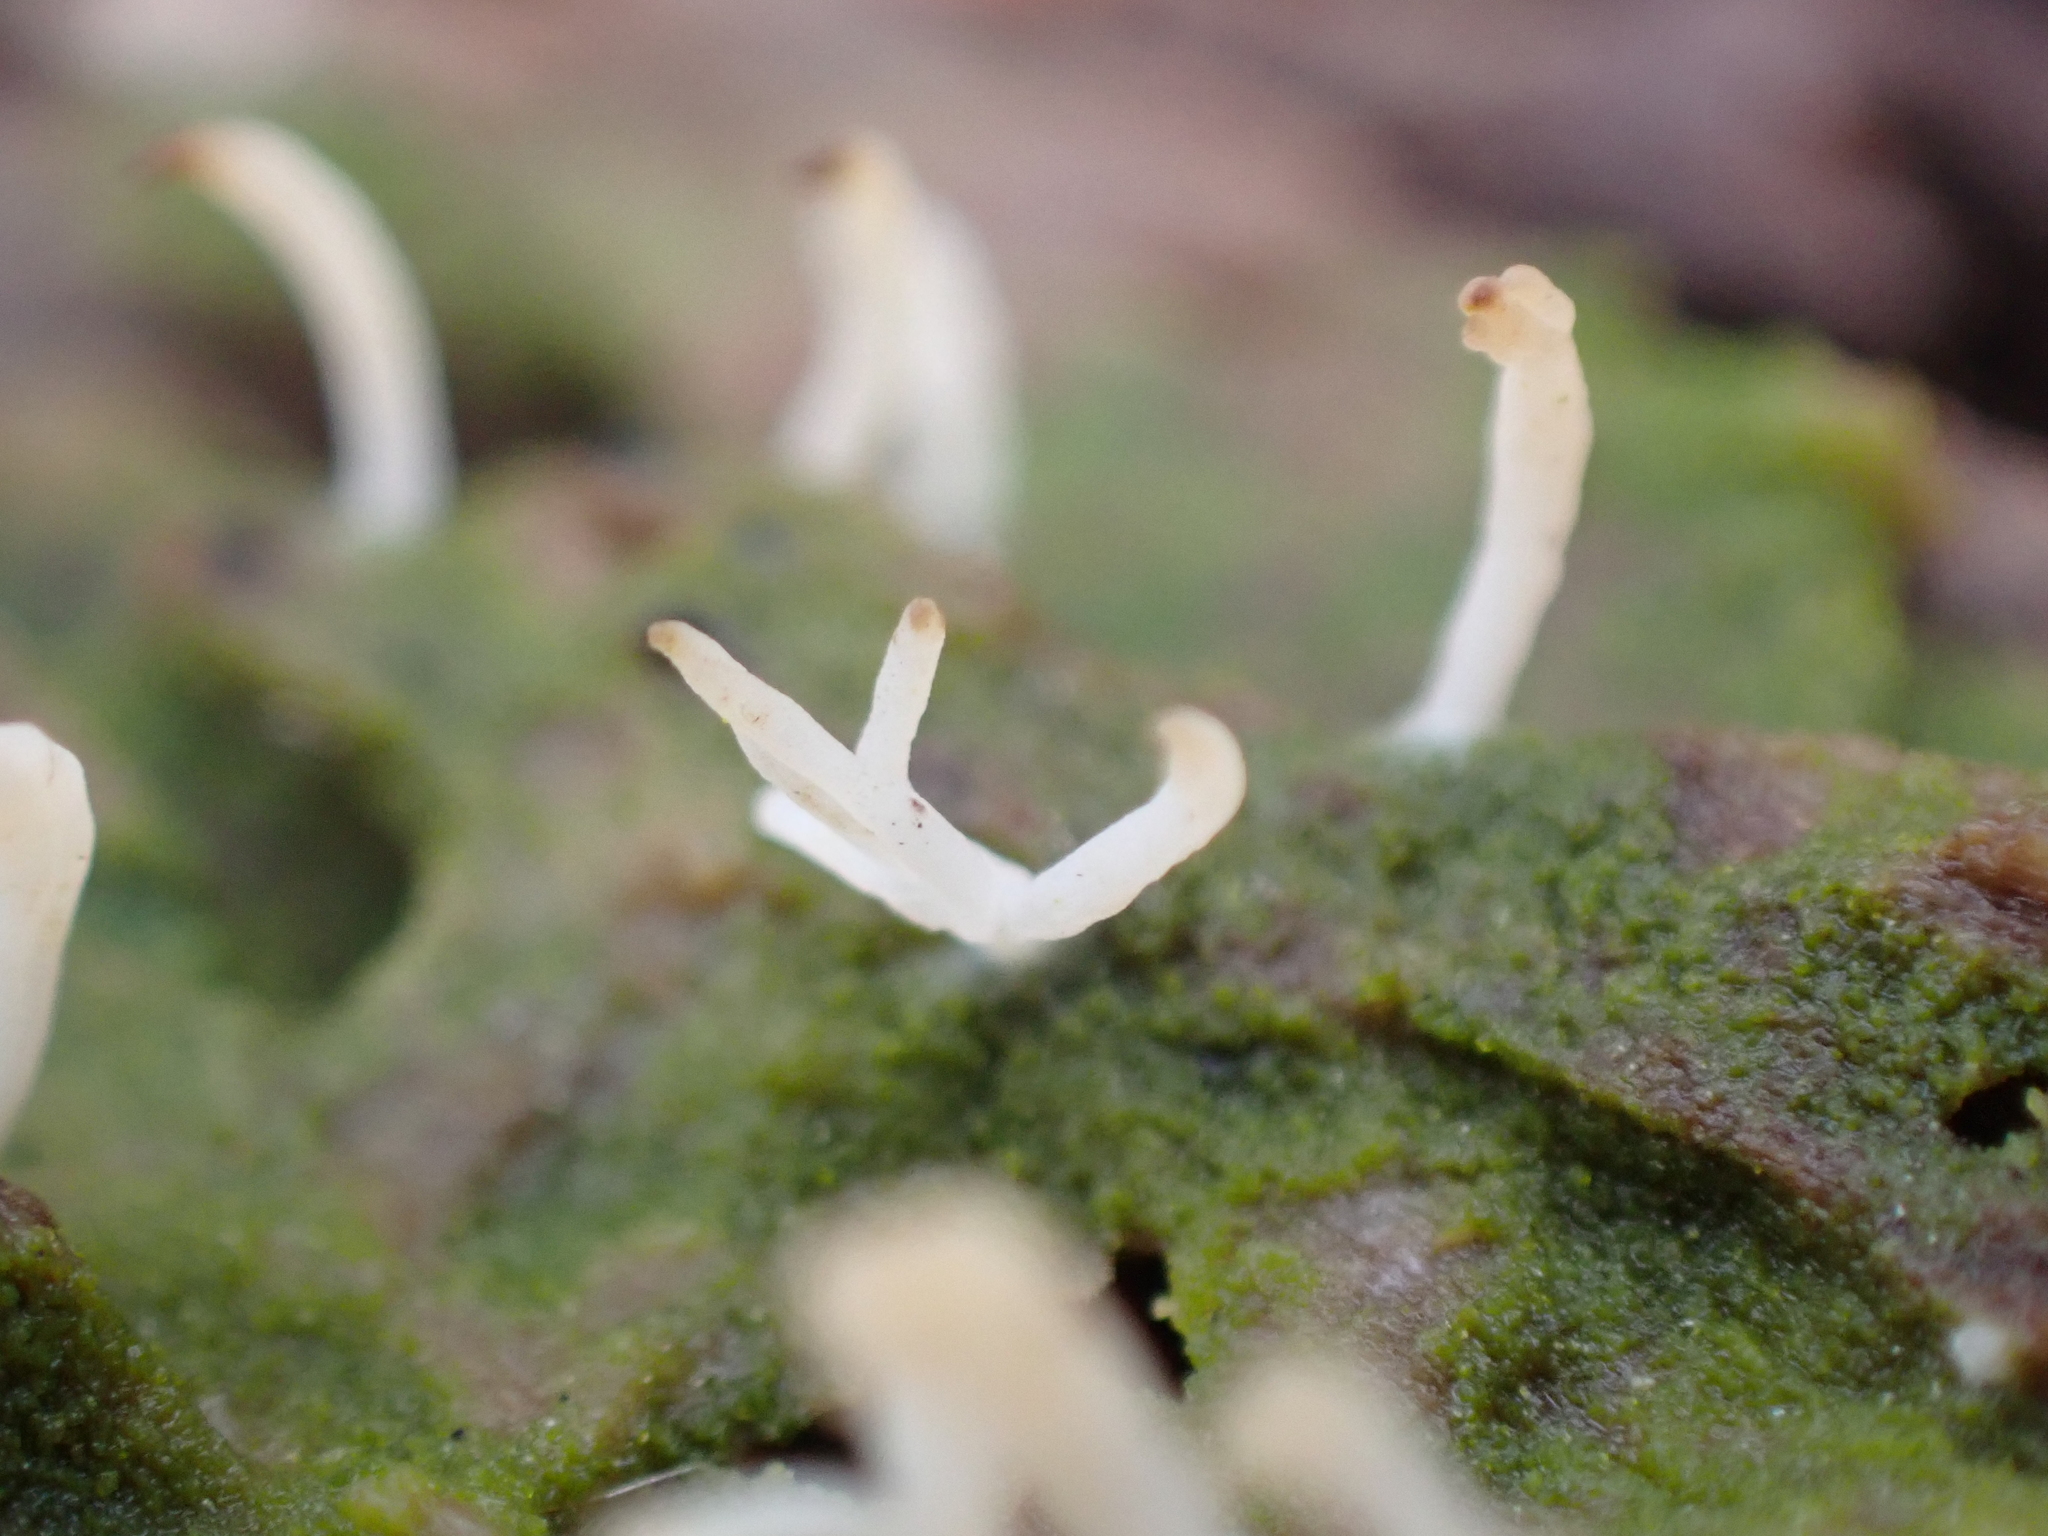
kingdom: Fungi
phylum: Basidiomycota
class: Agaricomycetes
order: Cantharellales
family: Hydnaceae
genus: Multiclavula
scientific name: Multiclavula mucida
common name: White green-algae coral
